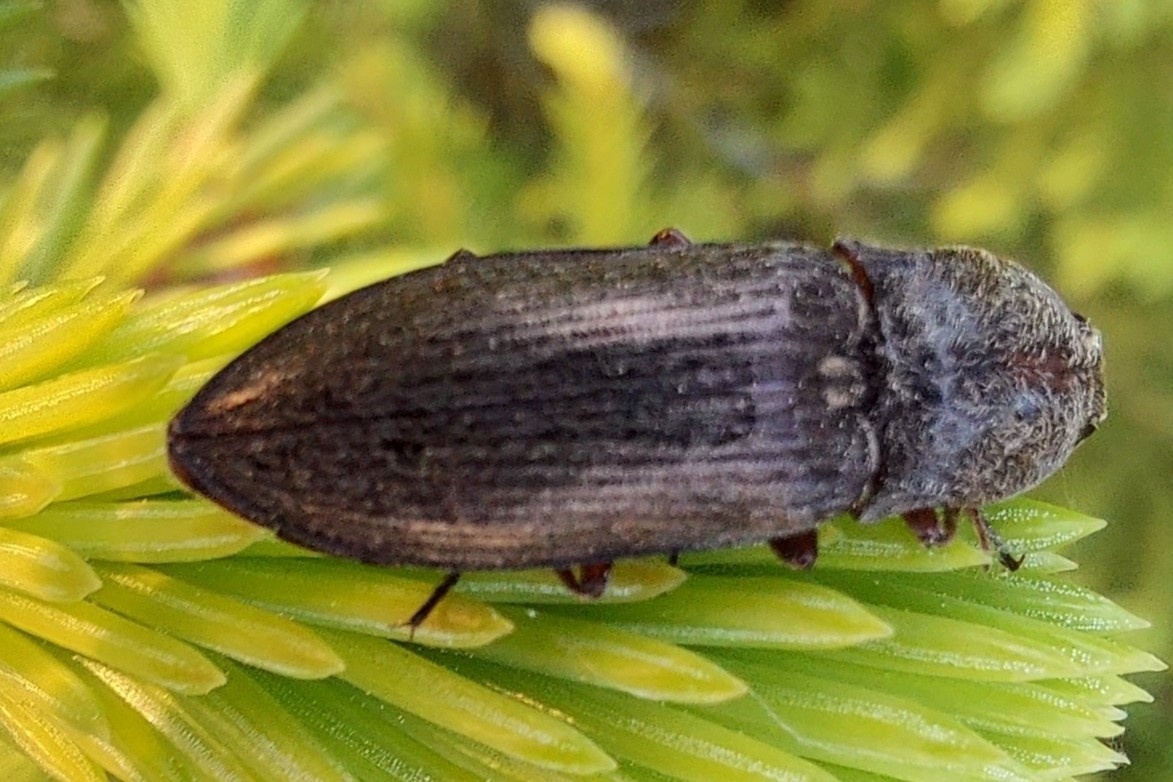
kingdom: Animalia
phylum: Arthropoda
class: Insecta
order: Coleoptera
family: Elateridae
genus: Paraphotistus
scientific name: Paraphotistus impressus
